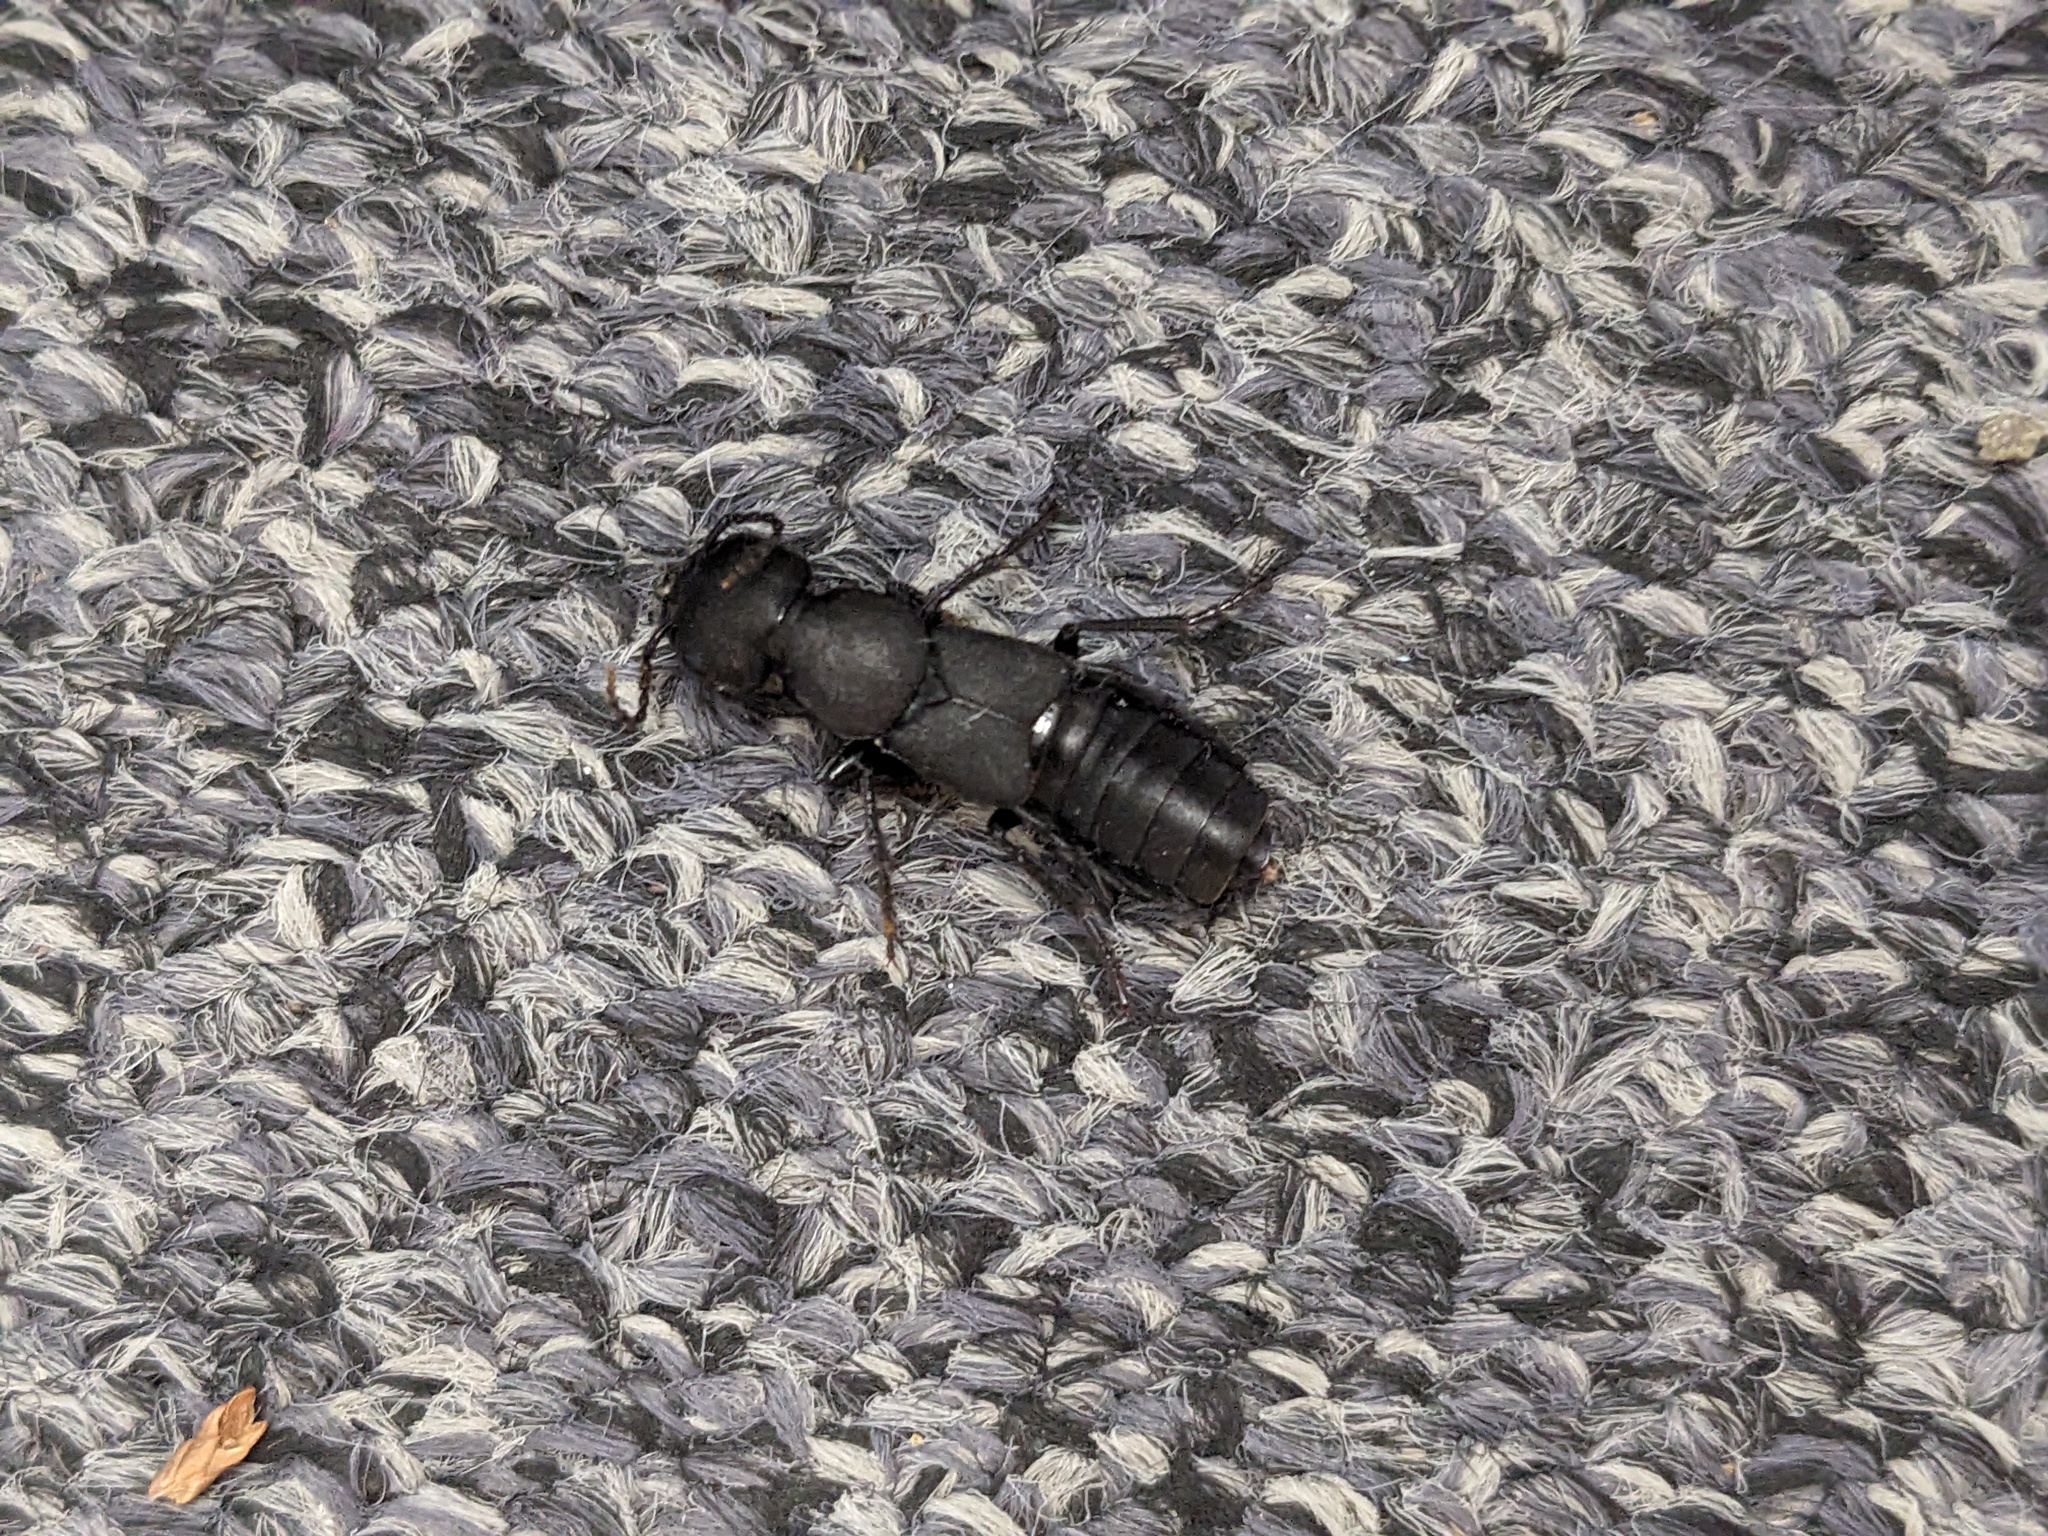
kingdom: Animalia
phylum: Arthropoda
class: Insecta
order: Coleoptera
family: Staphylinidae
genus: Ocypus
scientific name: Ocypus olens
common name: Devil's coach-horse
